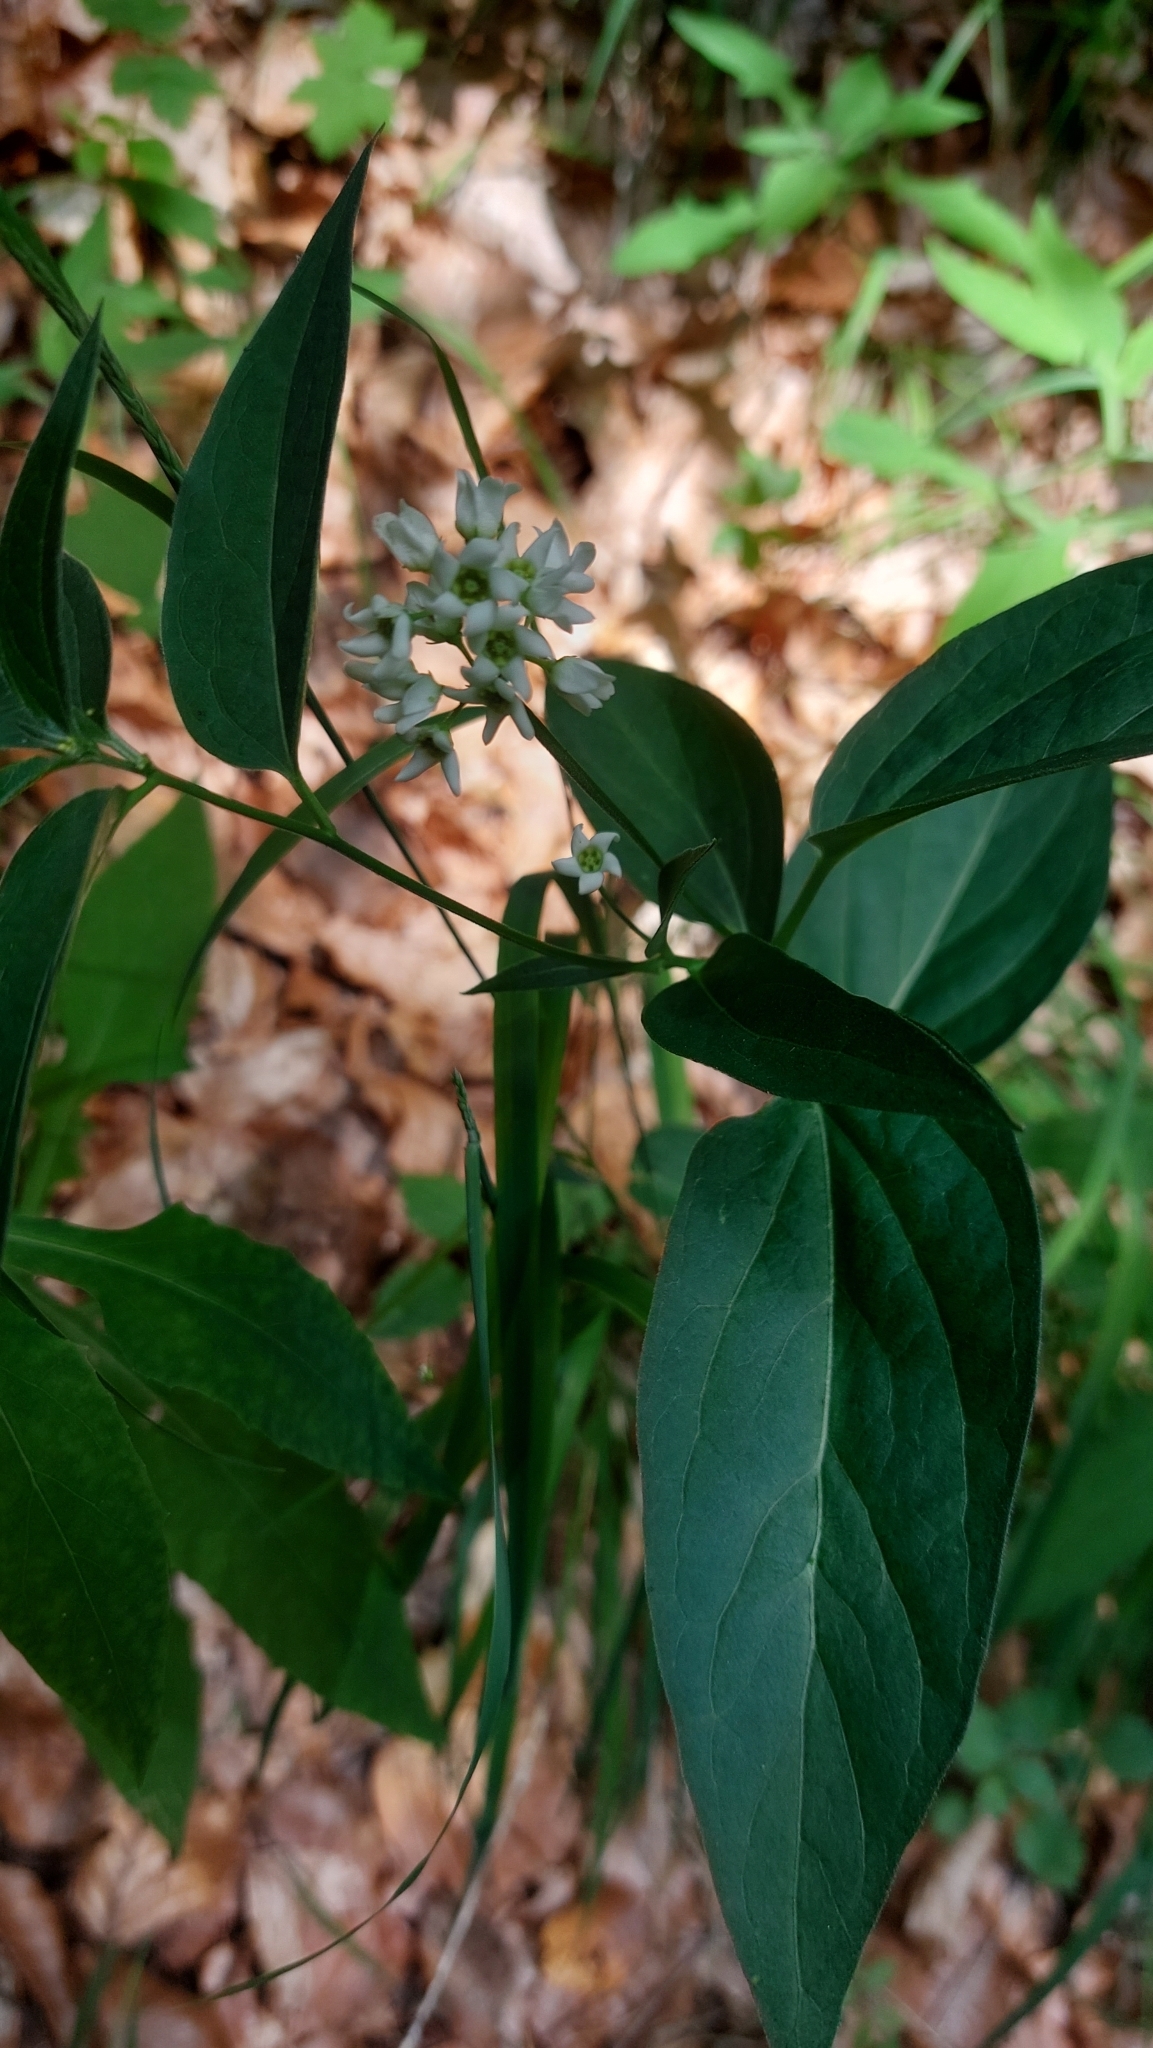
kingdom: Plantae
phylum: Tracheophyta
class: Magnoliopsida
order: Gentianales
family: Apocynaceae
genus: Vincetoxicum
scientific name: Vincetoxicum hirundinaria
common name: White swallowwort
